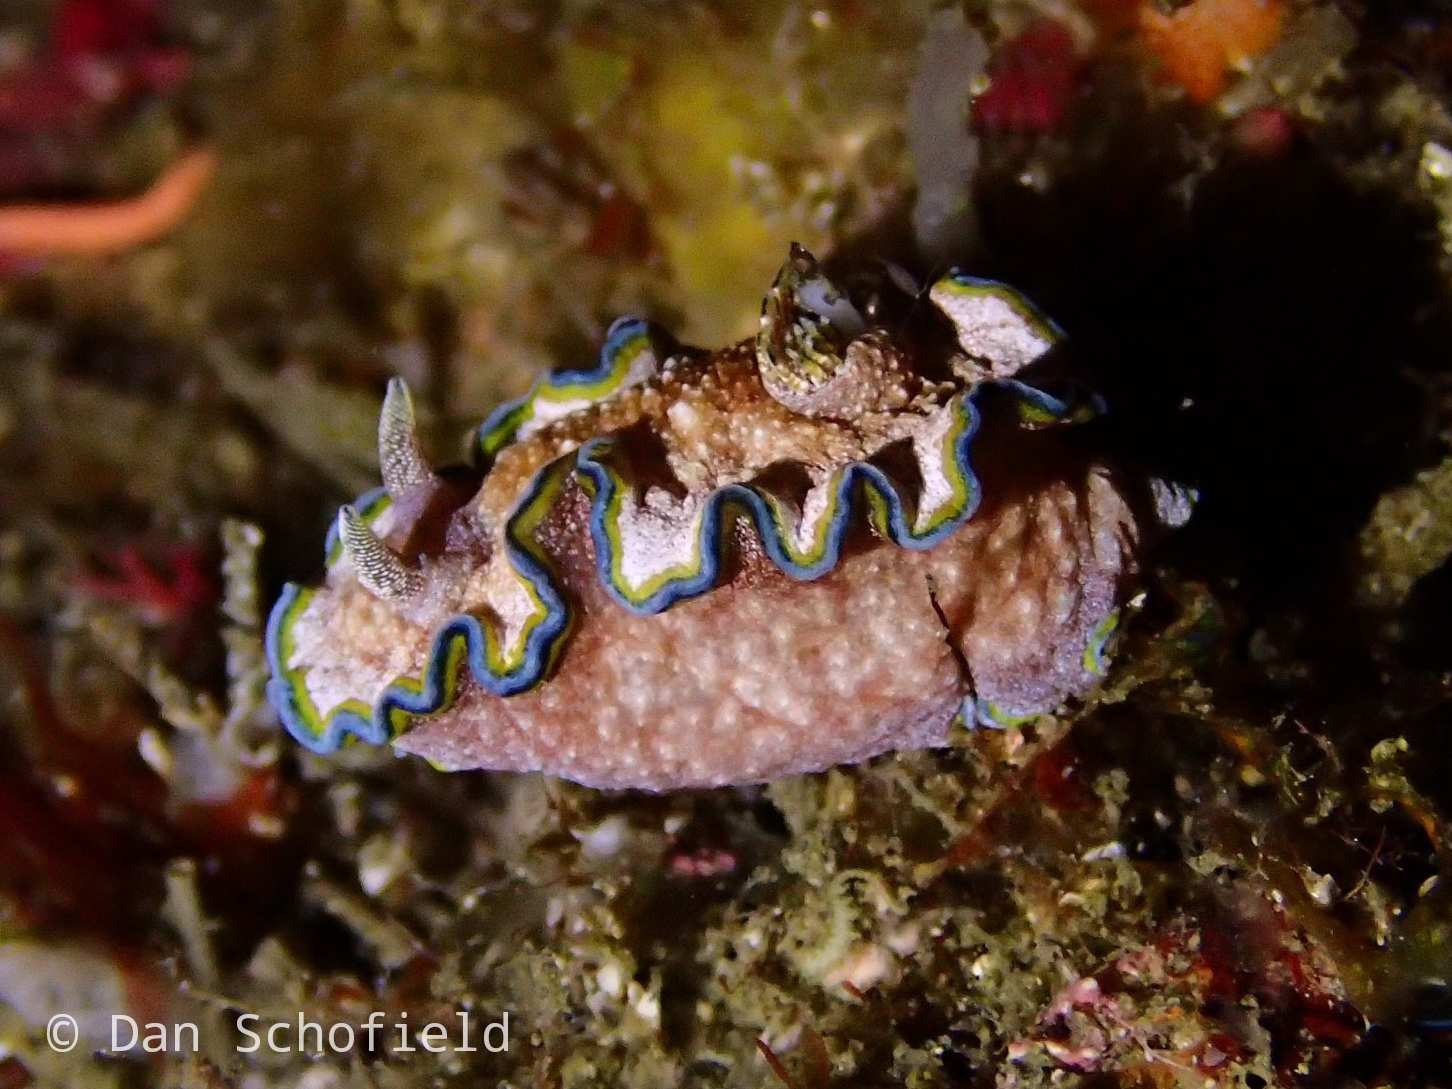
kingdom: Animalia
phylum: Mollusca
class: Gastropoda
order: Nudibranchia
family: Chromodorididae
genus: Glossodoris
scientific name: Glossodoris acosti
